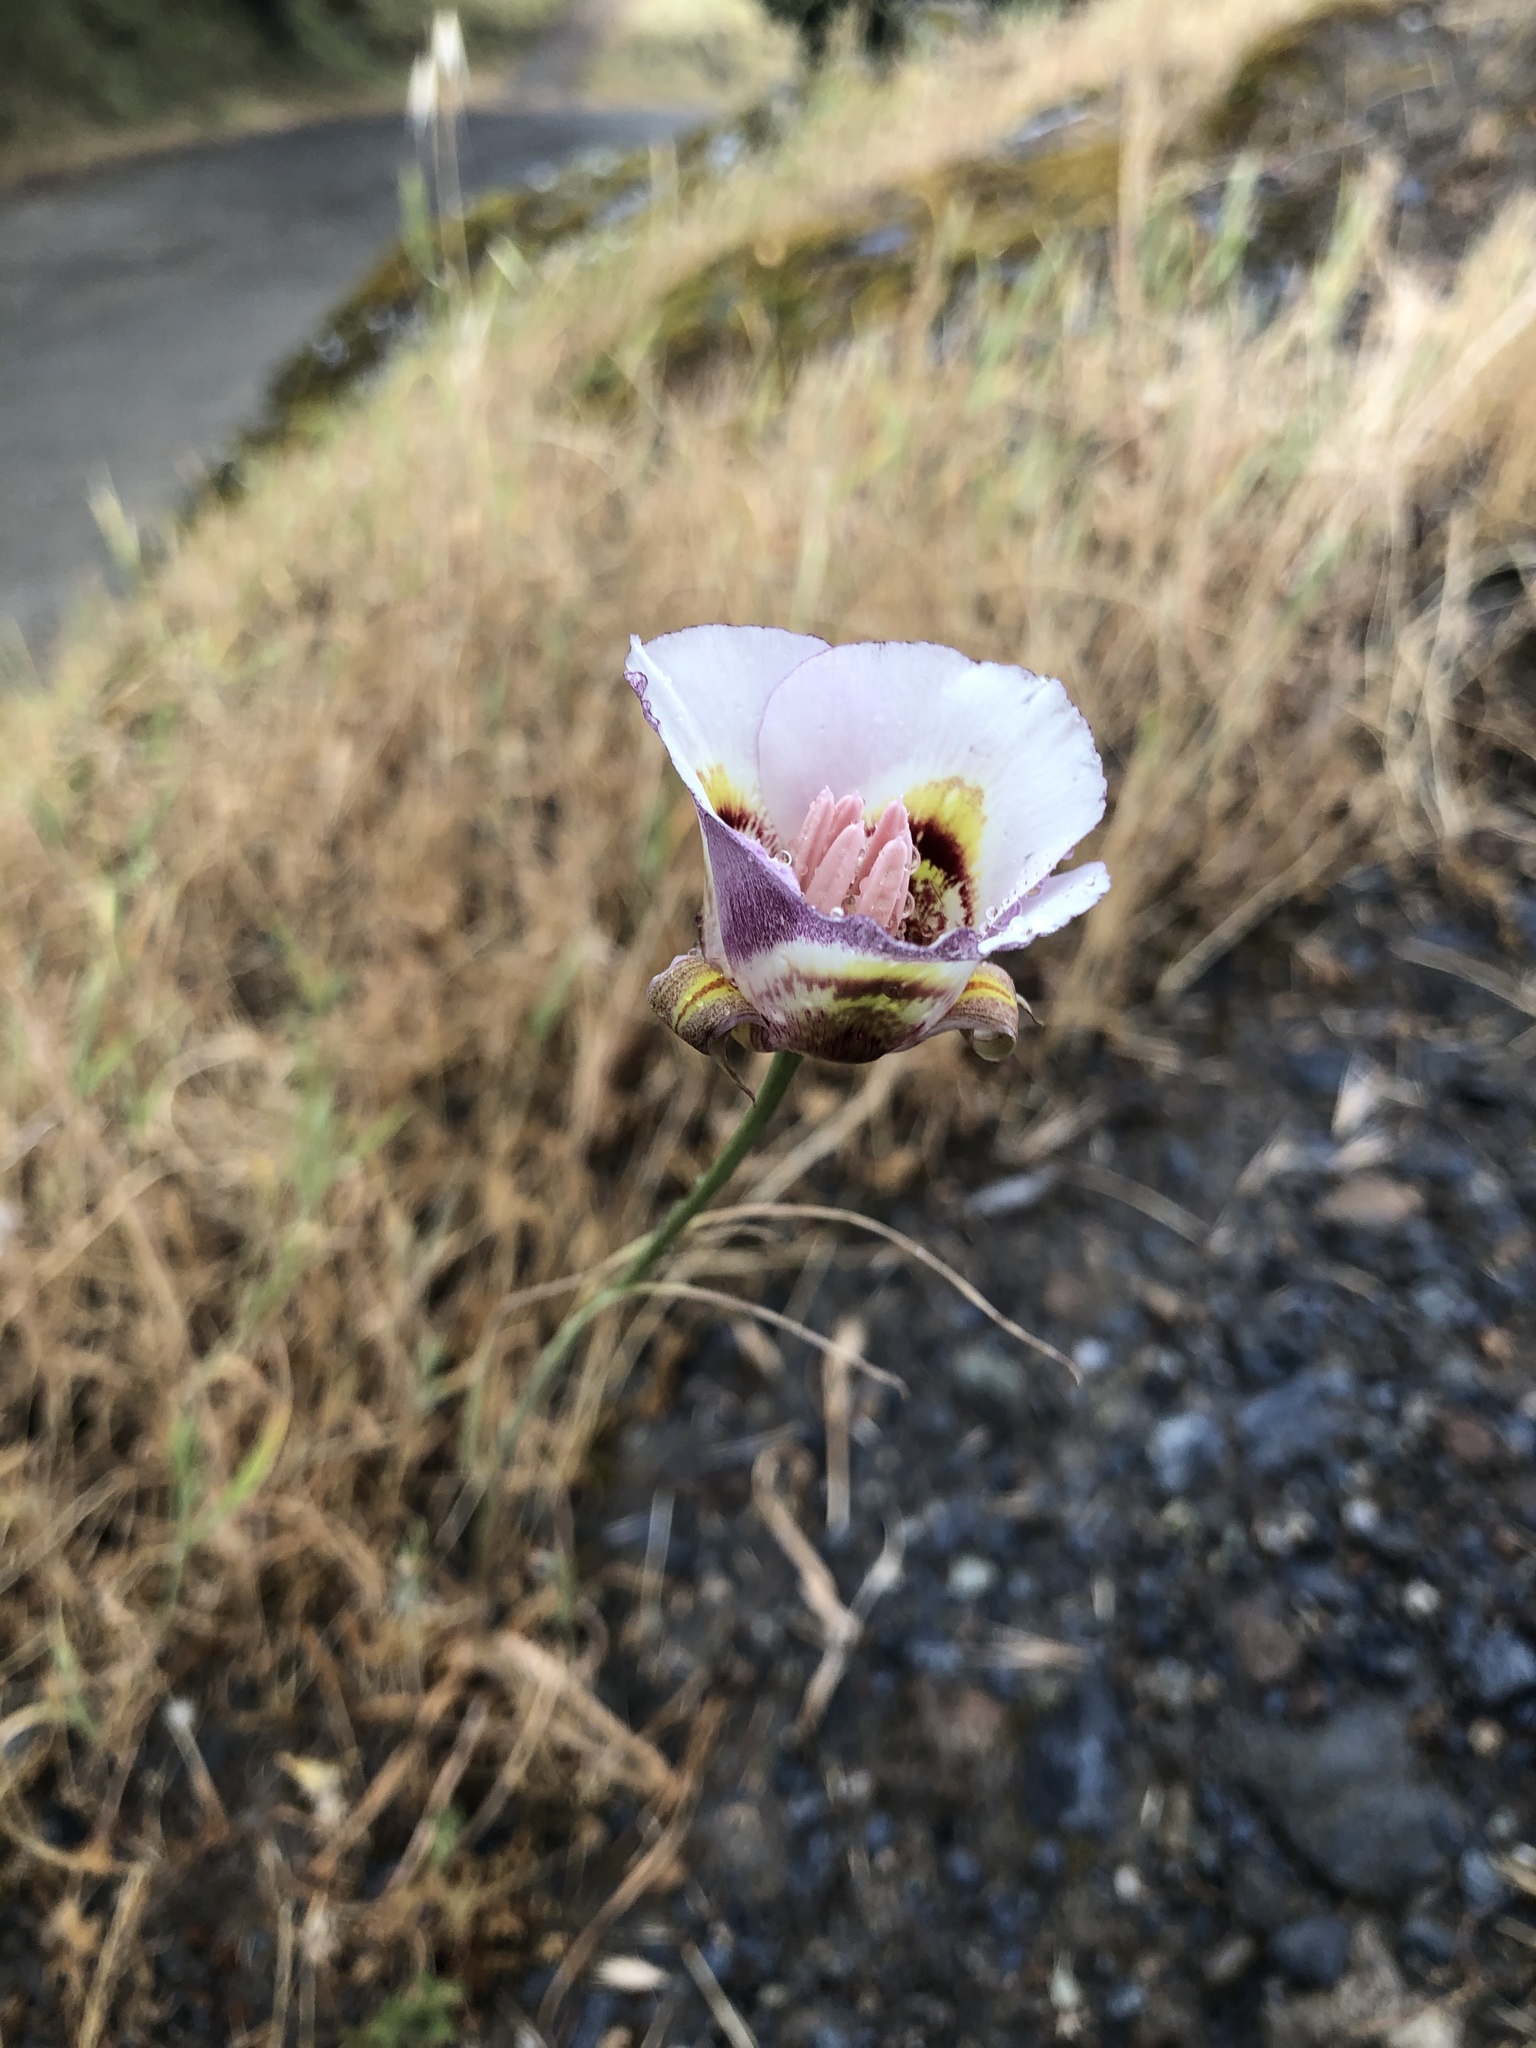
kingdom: Plantae
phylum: Tracheophyta
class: Liliopsida
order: Liliales
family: Liliaceae
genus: Calochortus
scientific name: Calochortus argillosus
